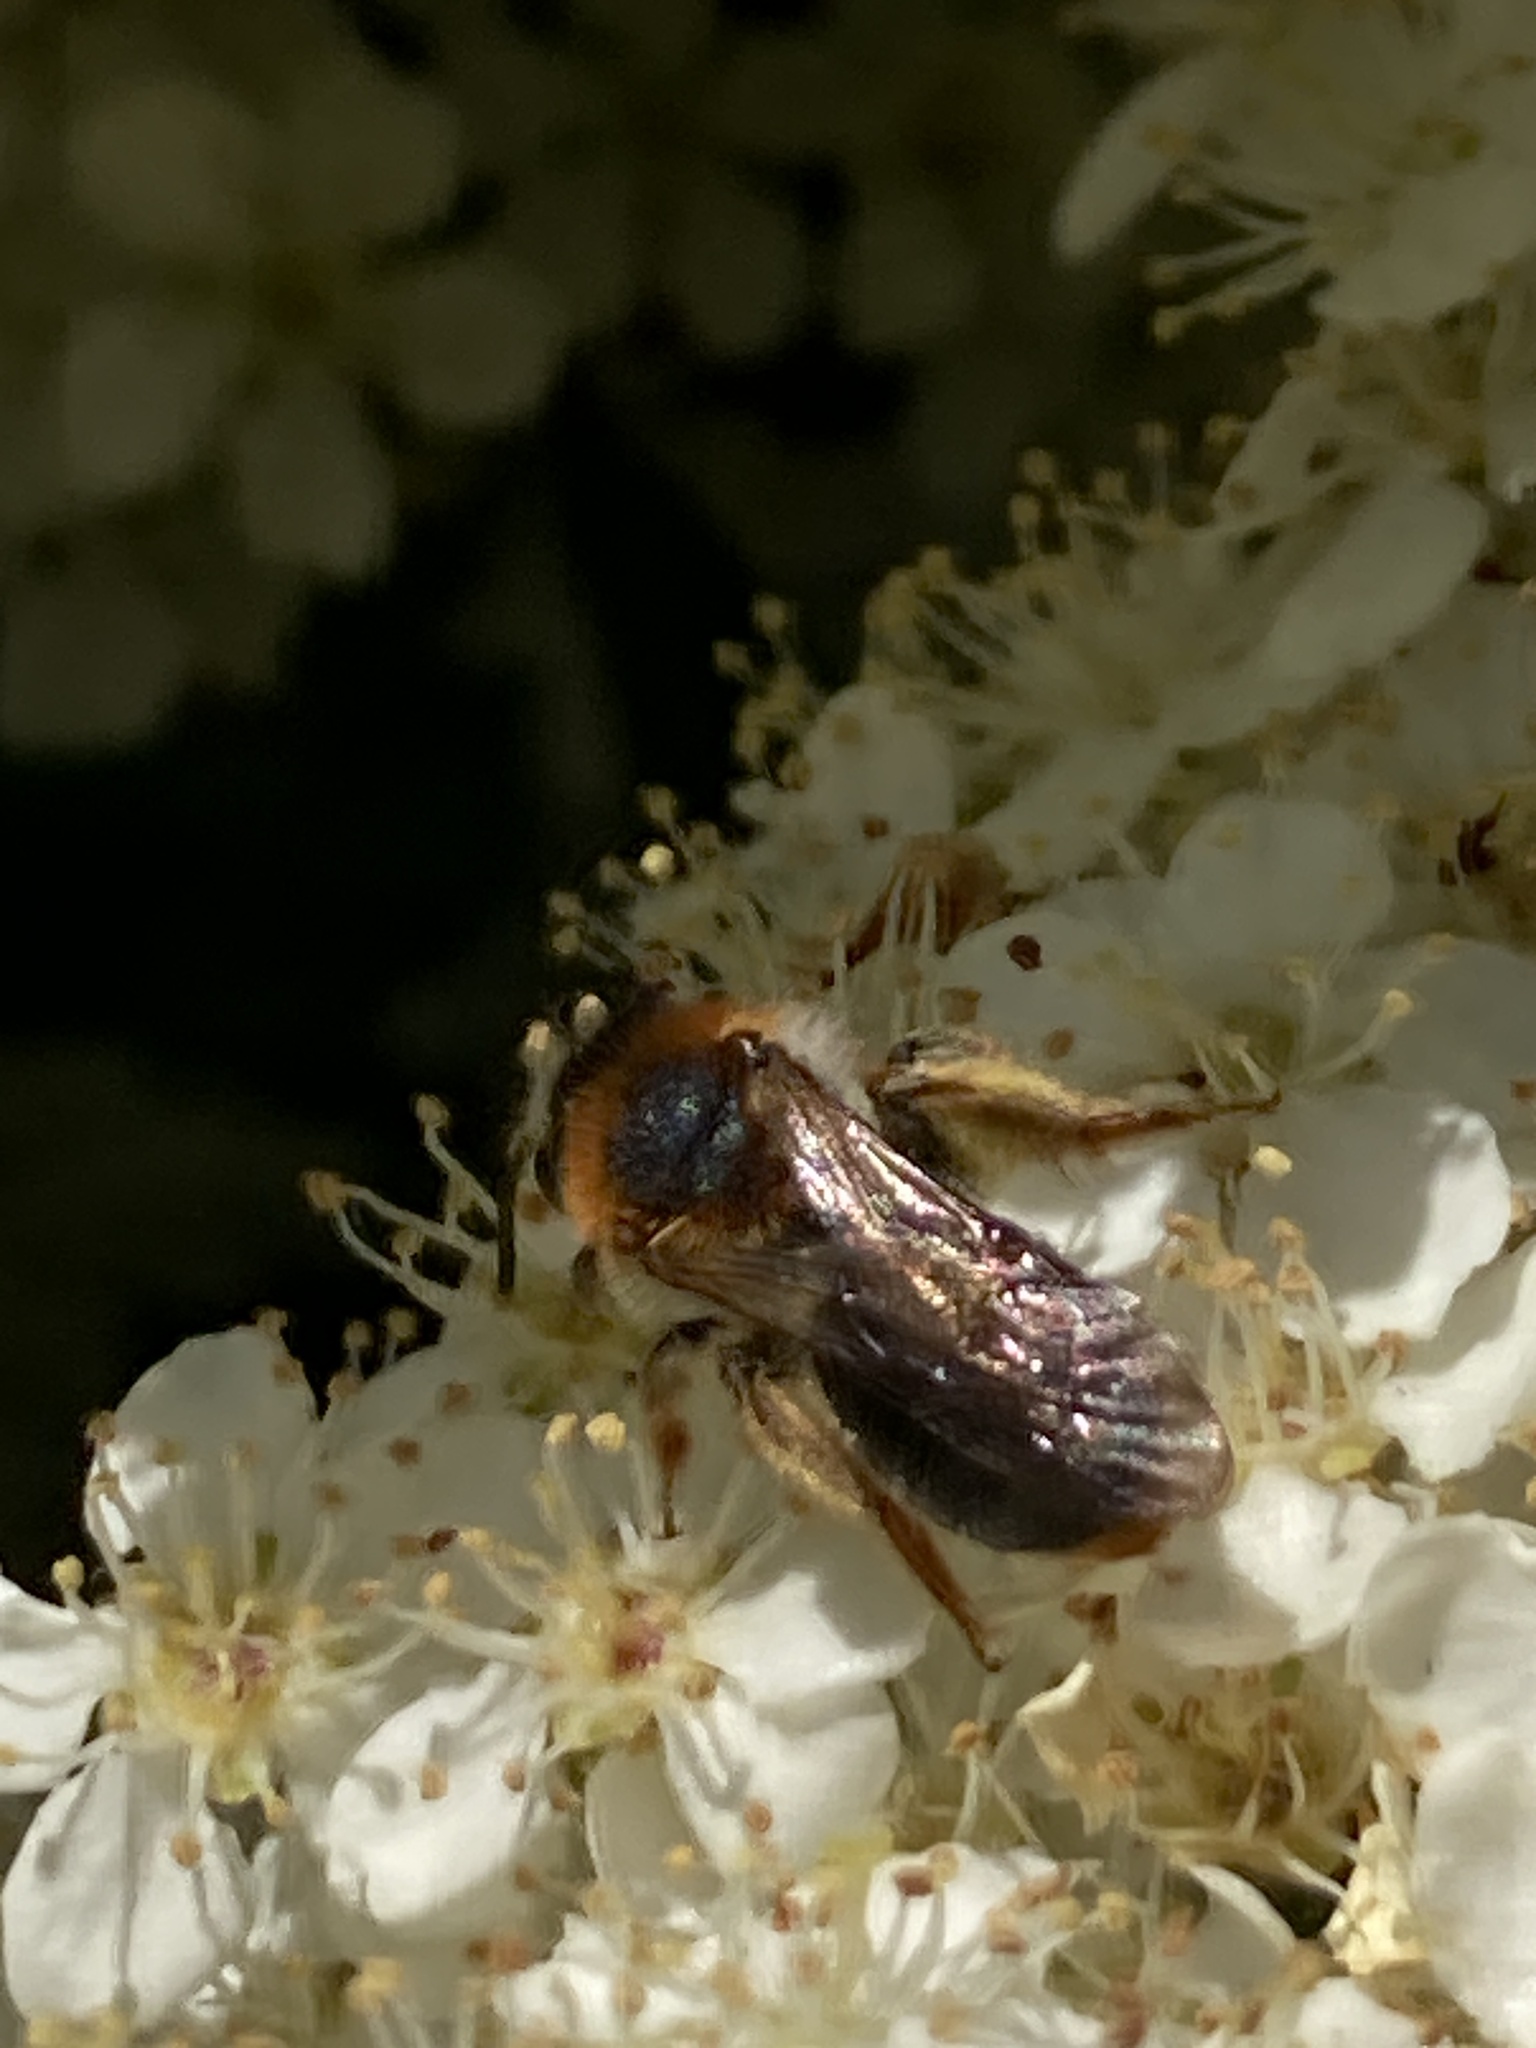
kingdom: Animalia
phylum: Arthropoda
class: Insecta
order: Hymenoptera
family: Andrenidae
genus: Andrena
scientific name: Andrena haemorrhoa
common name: Early mining bee
